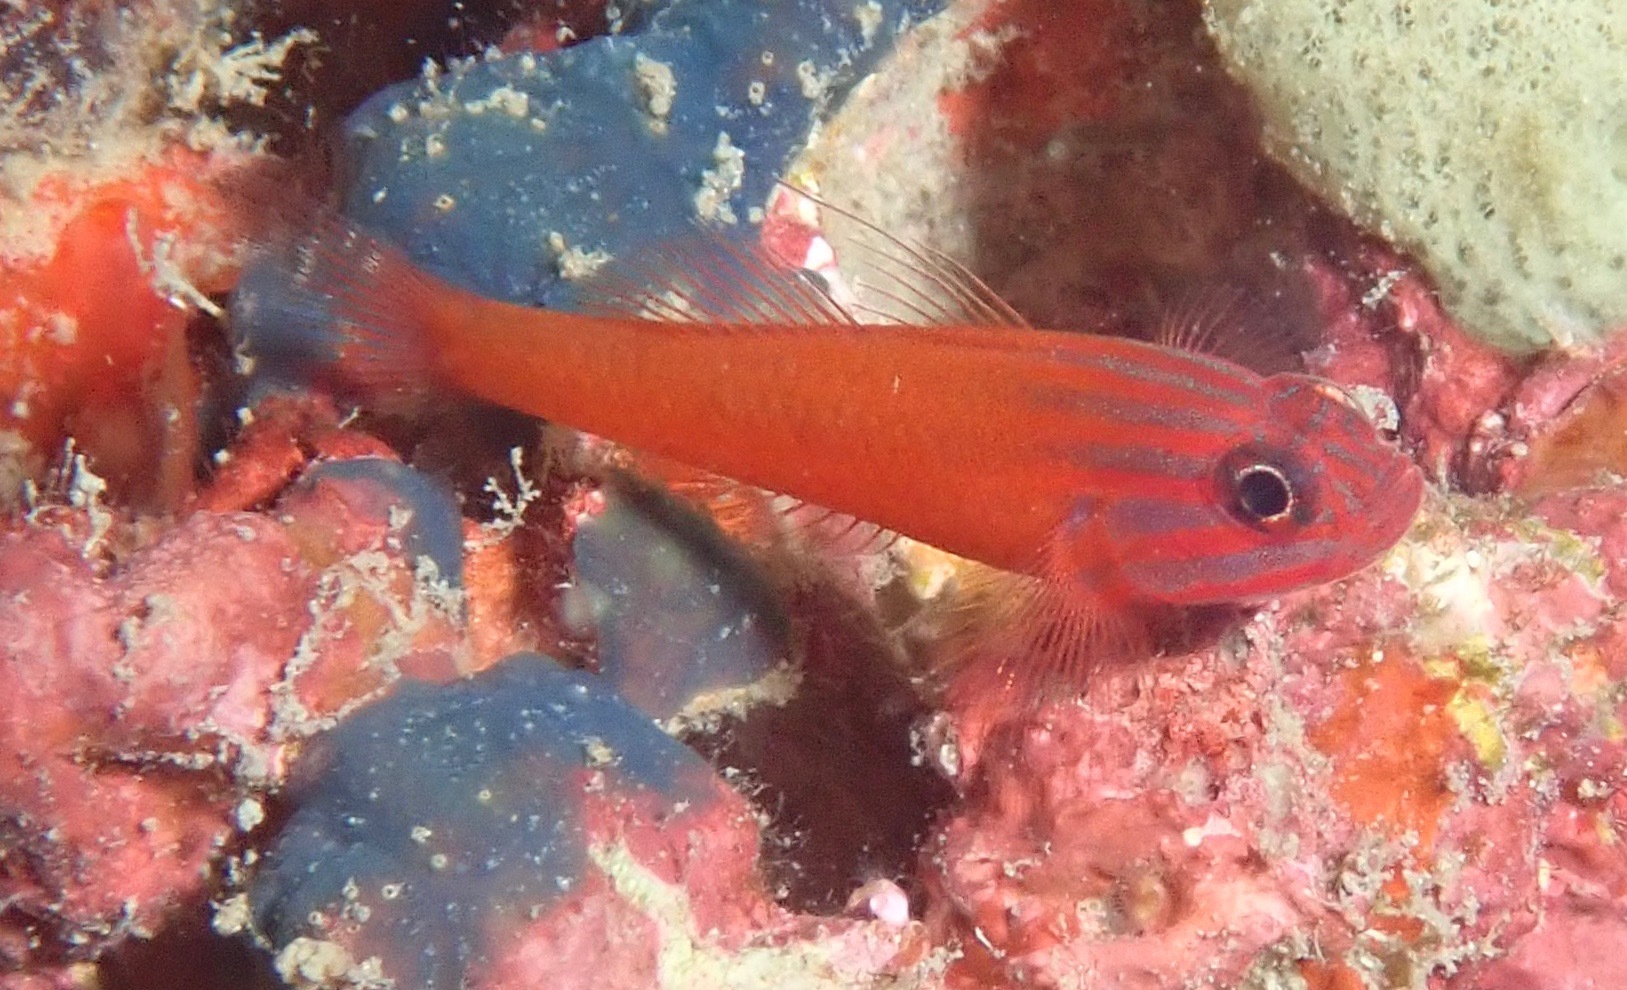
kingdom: Animalia
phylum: Chordata
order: Perciformes
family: Gobiidae
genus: Trimma
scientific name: Trimma striatum
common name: Red-lined pygmy-goby
